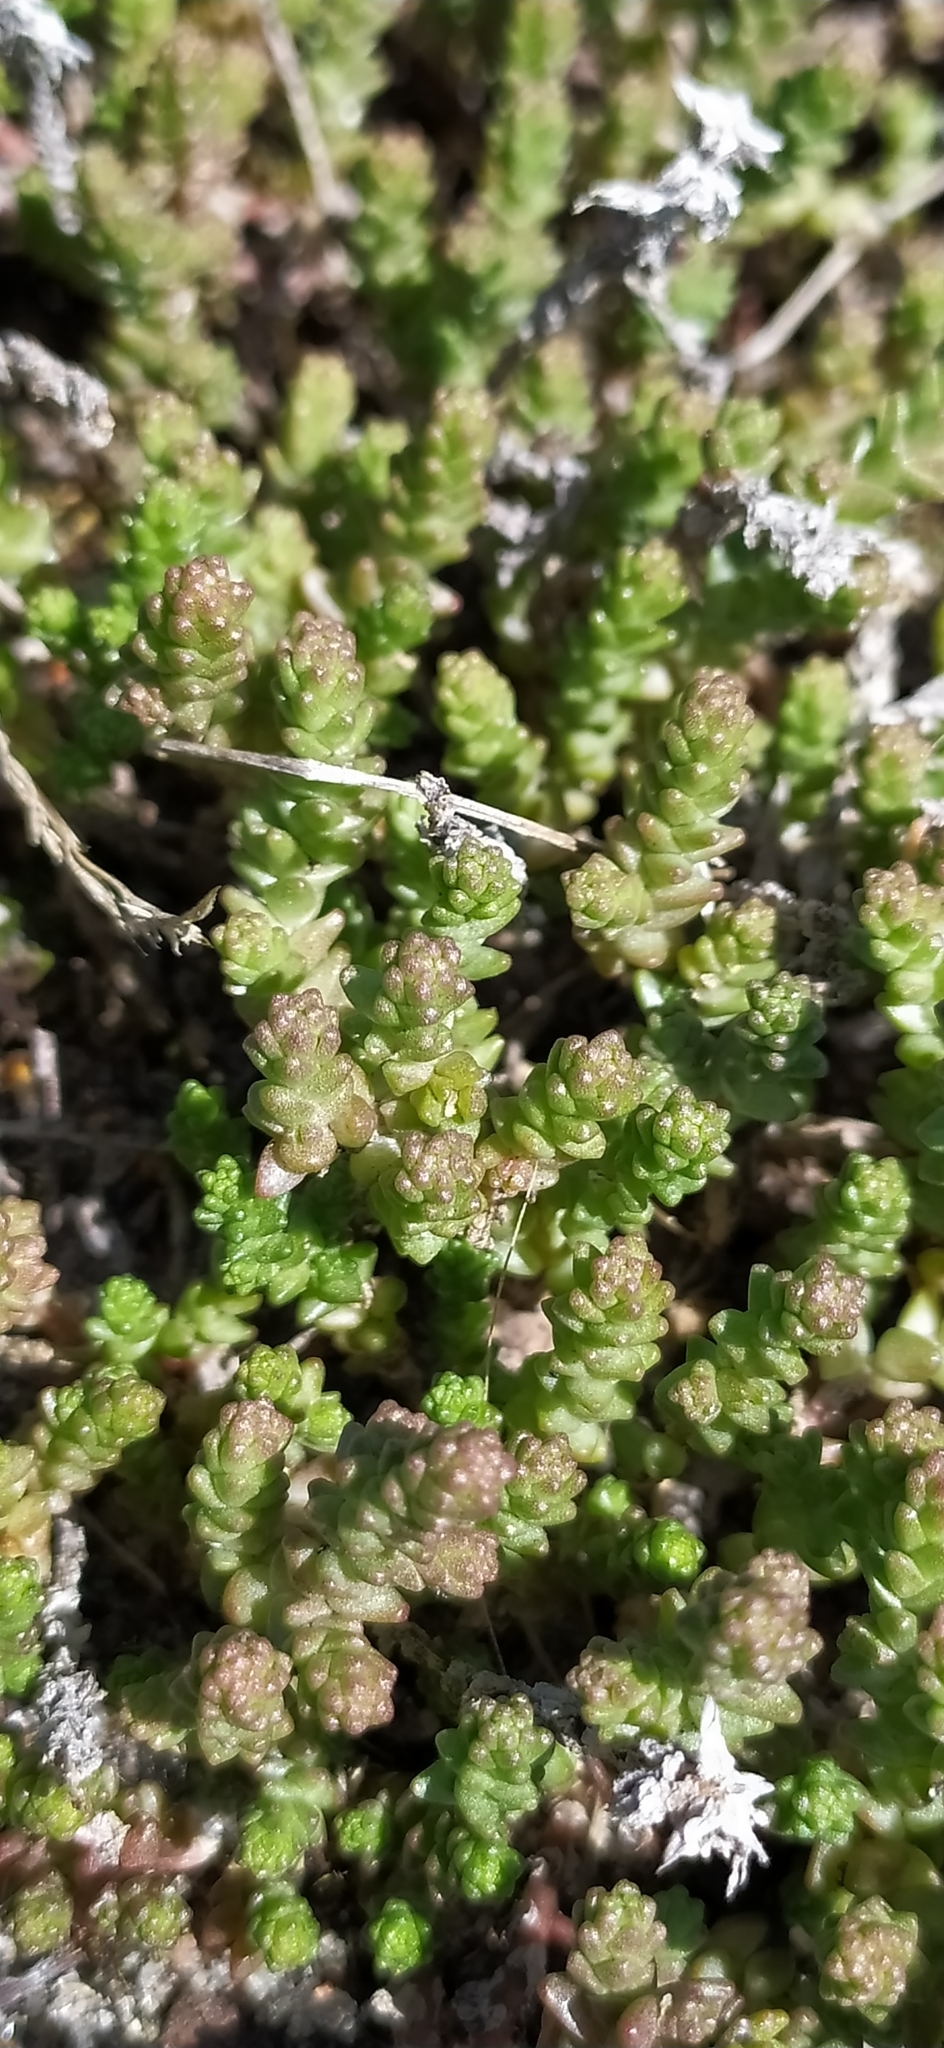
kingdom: Plantae
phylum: Tracheophyta
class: Magnoliopsida
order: Saxifragales
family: Crassulaceae
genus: Sedum
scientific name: Sedum acre
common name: Biting stonecrop
